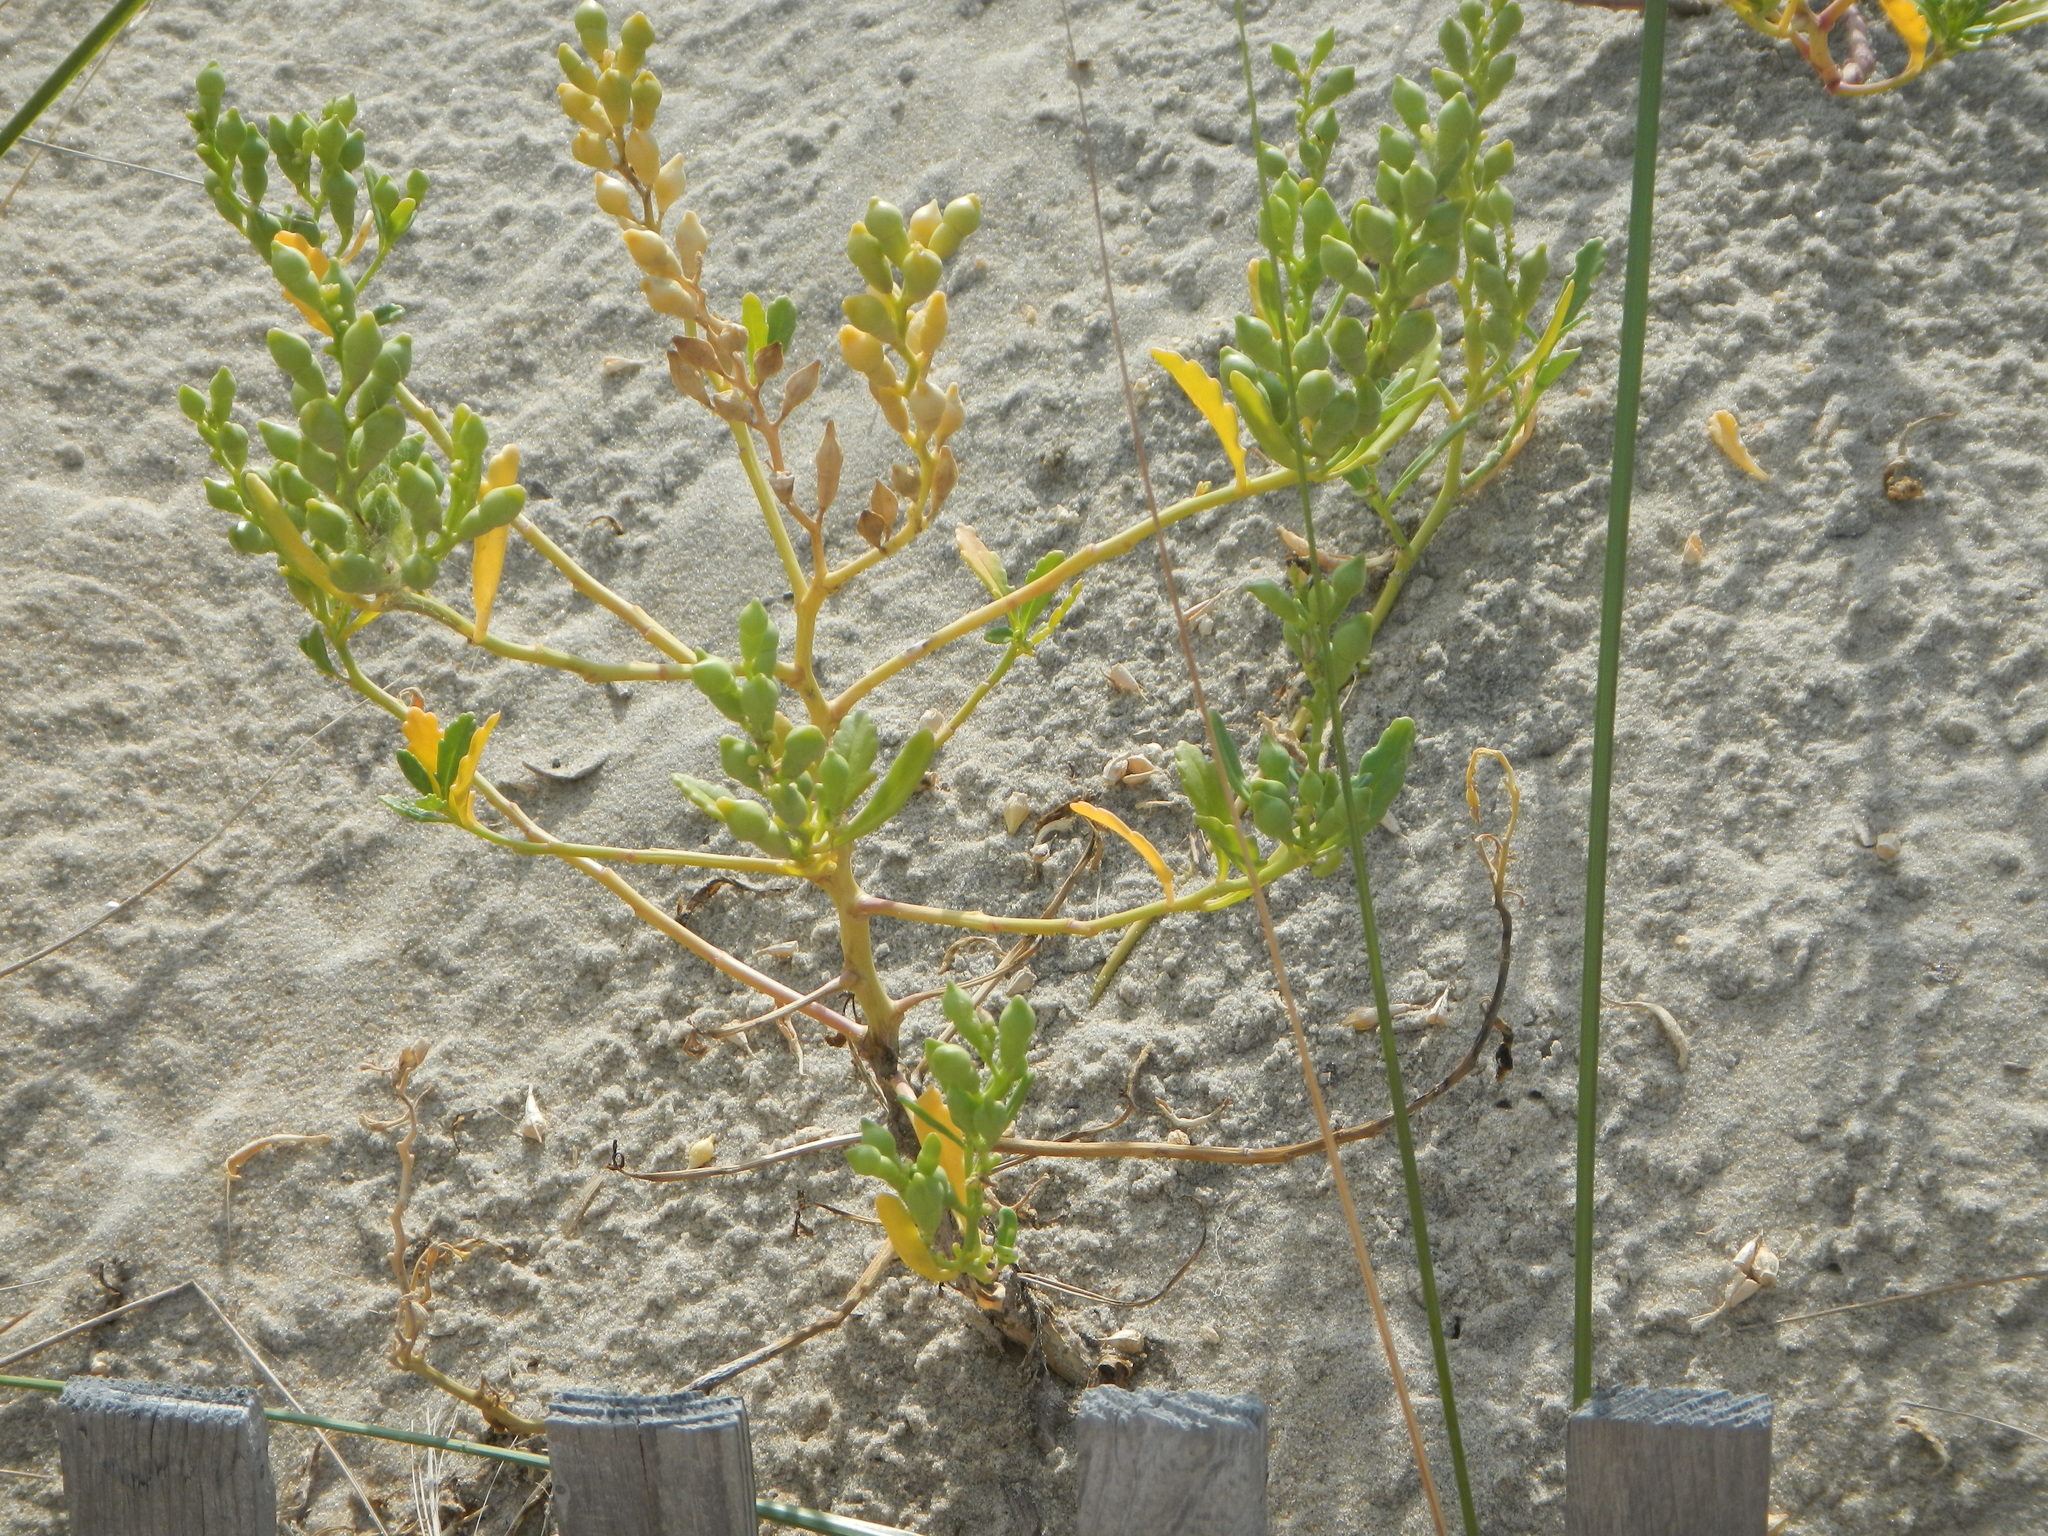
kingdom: Plantae
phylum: Tracheophyta
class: Magnoliopsida
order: Brassicales
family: Brassicaceae
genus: Cakile
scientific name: Cakile edentula
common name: American sea rocket
